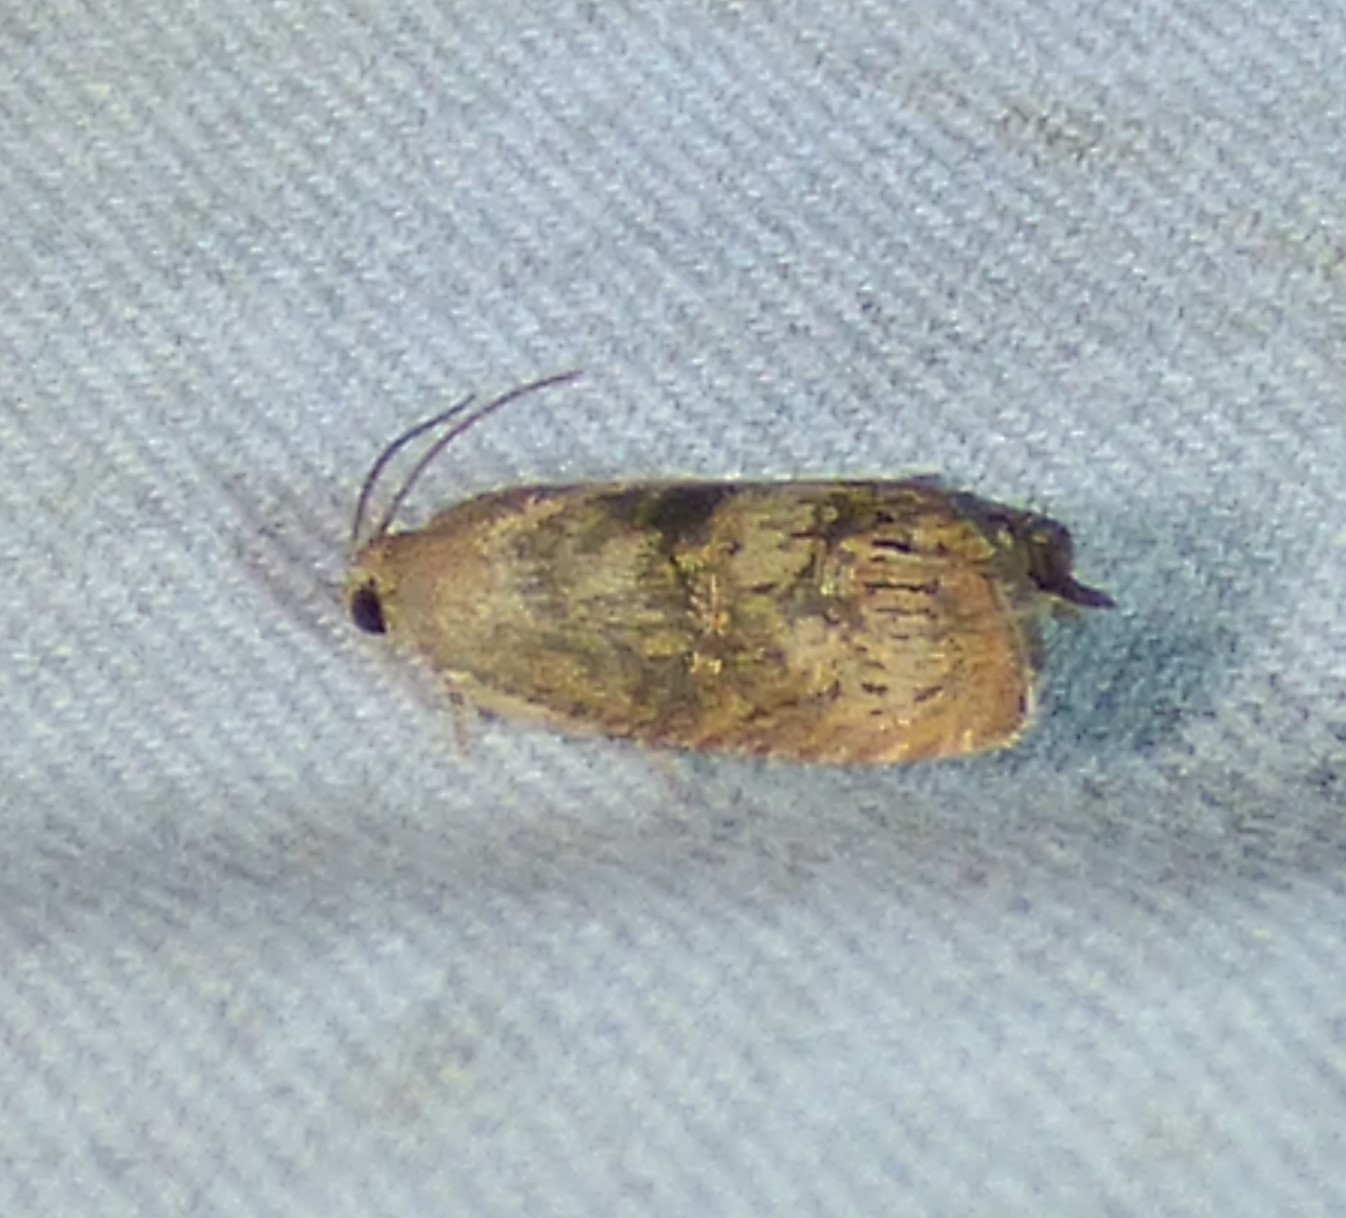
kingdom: Animalia
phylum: Arthropoda
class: Insecta
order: Lepidoptera
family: Tortricidae
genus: Cydia
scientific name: Cydia latiferreana
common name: Filbertworm moth
